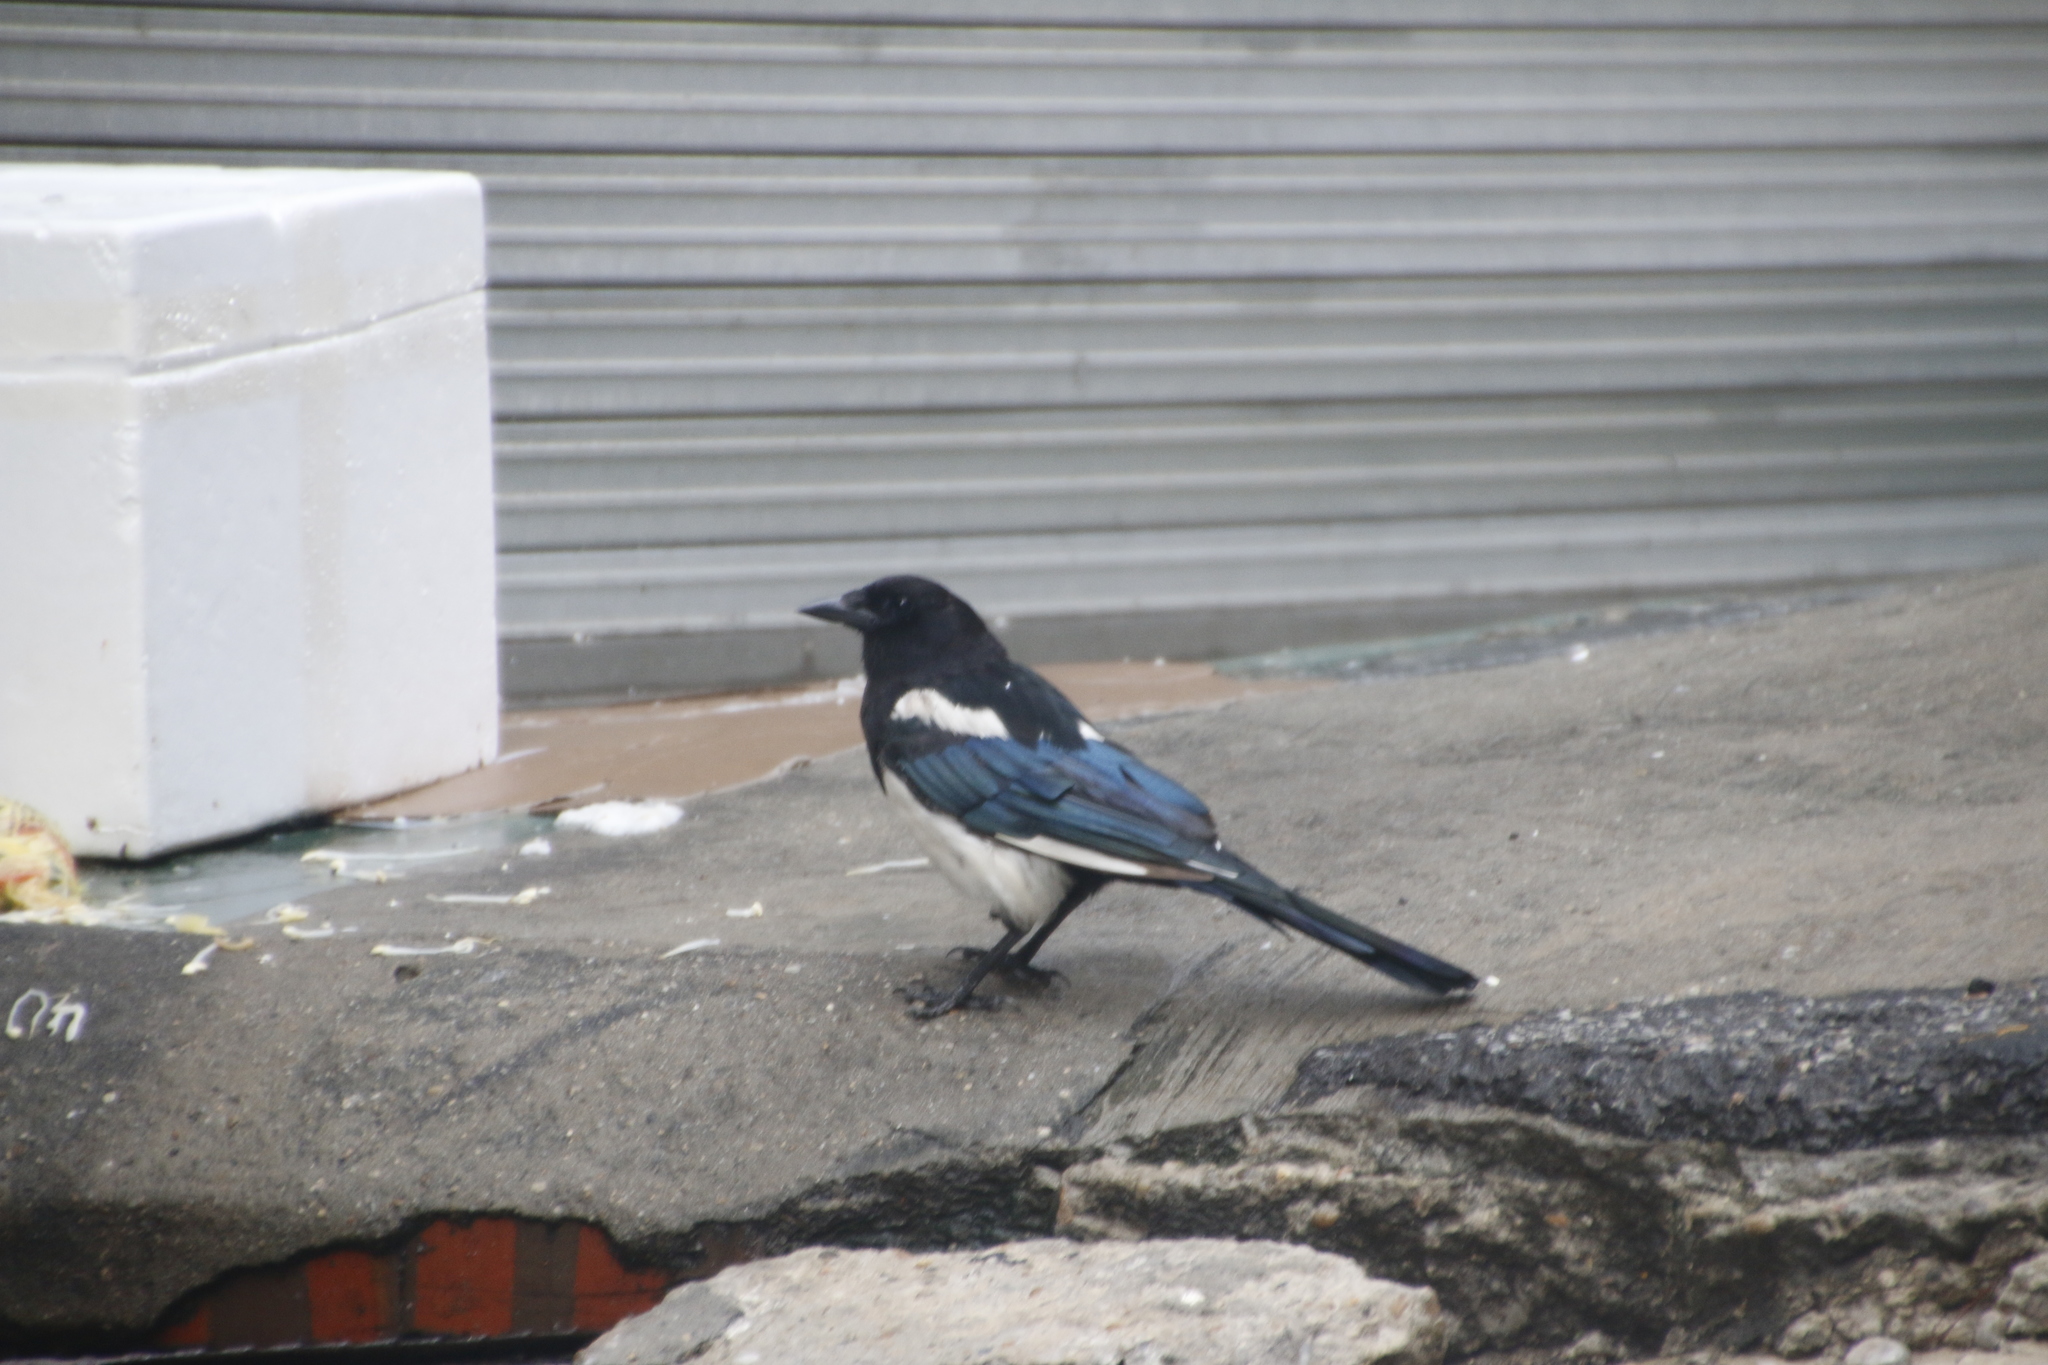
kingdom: Animalia
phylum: Chordata
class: Aves
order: Passeriformes
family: Corvidae
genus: Pica
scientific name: Pica serica
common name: Oriental magpie
